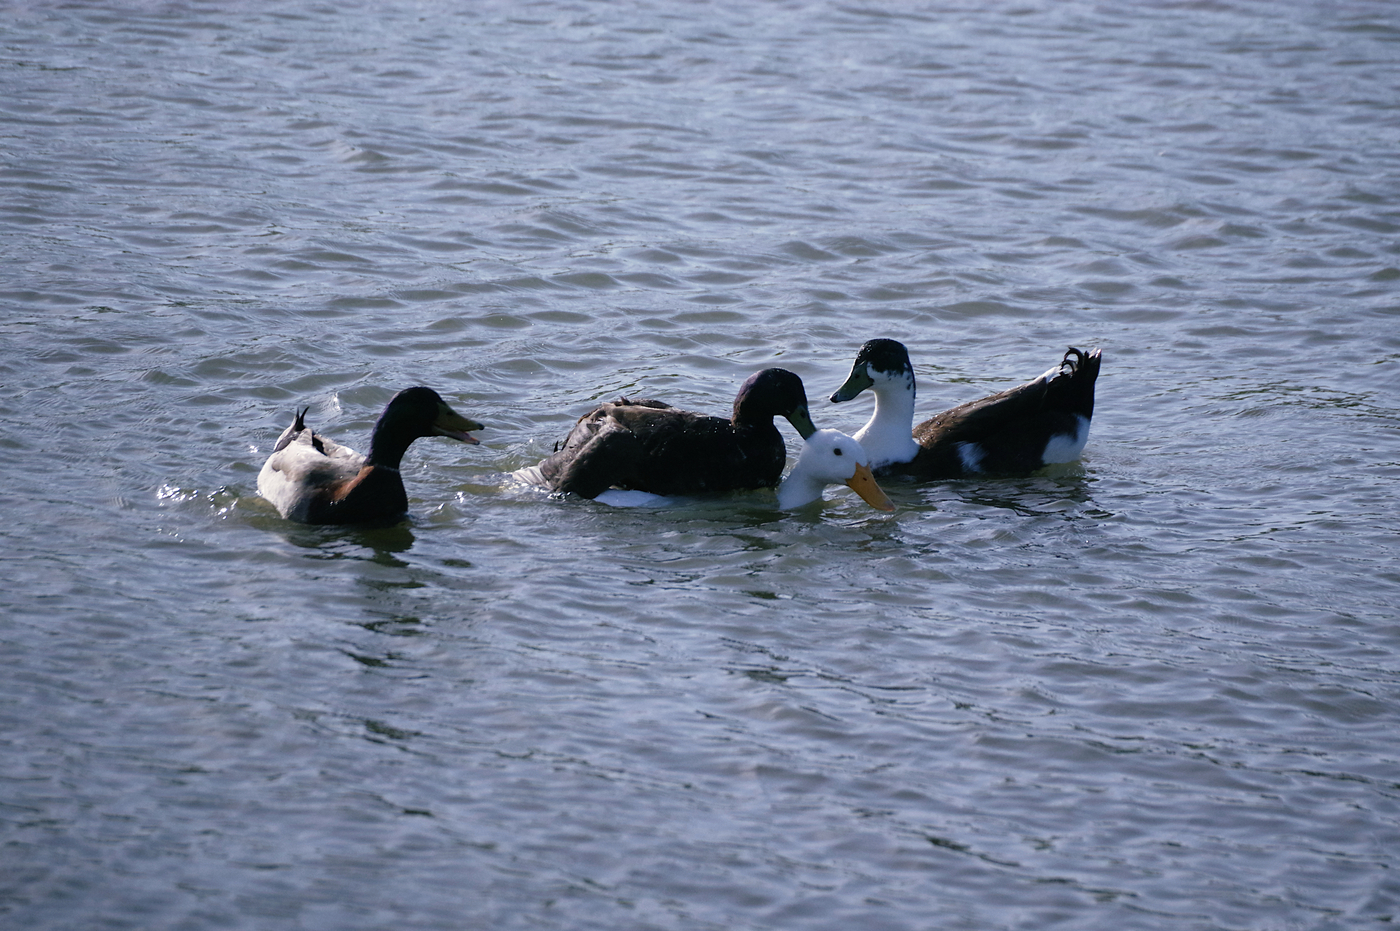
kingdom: Animalia
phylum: Chordata
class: Aves
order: Anseriformes
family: Anatidae
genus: Anas
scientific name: Anas platyrhynchos
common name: Mallard
